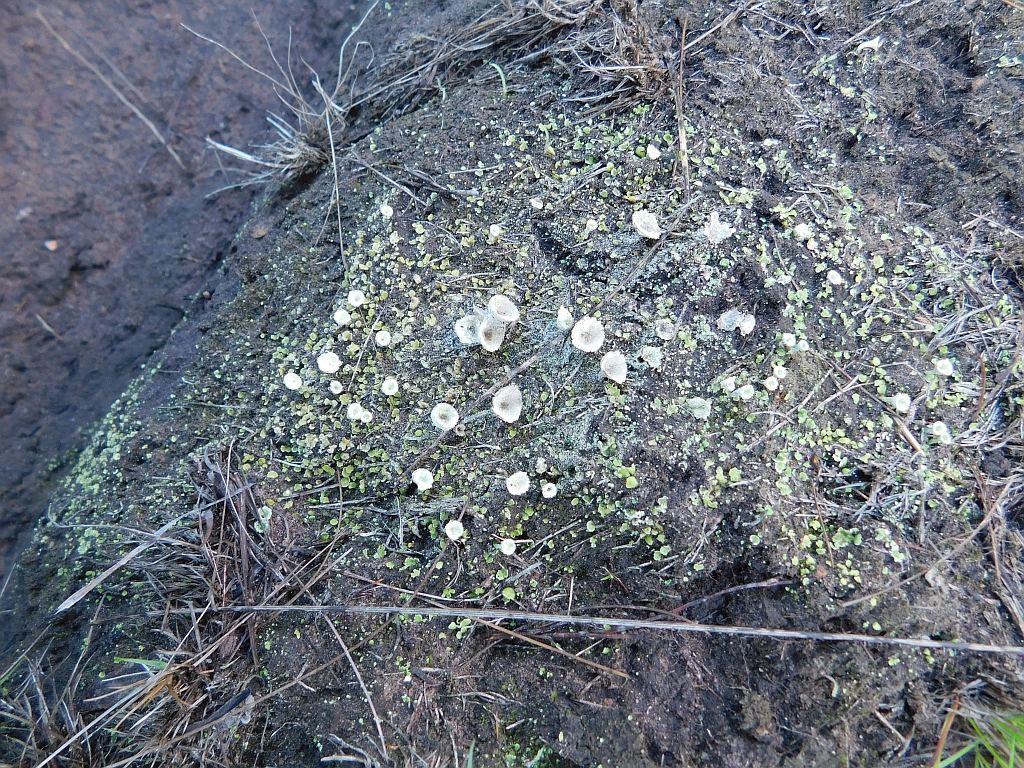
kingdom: Fungi
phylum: Ascomycota
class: Lecanoromycetes
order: Lecanorales
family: Cladoniaceae
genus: Cladonia
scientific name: Cladonia pyxidata
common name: Pebbled pixie cup
